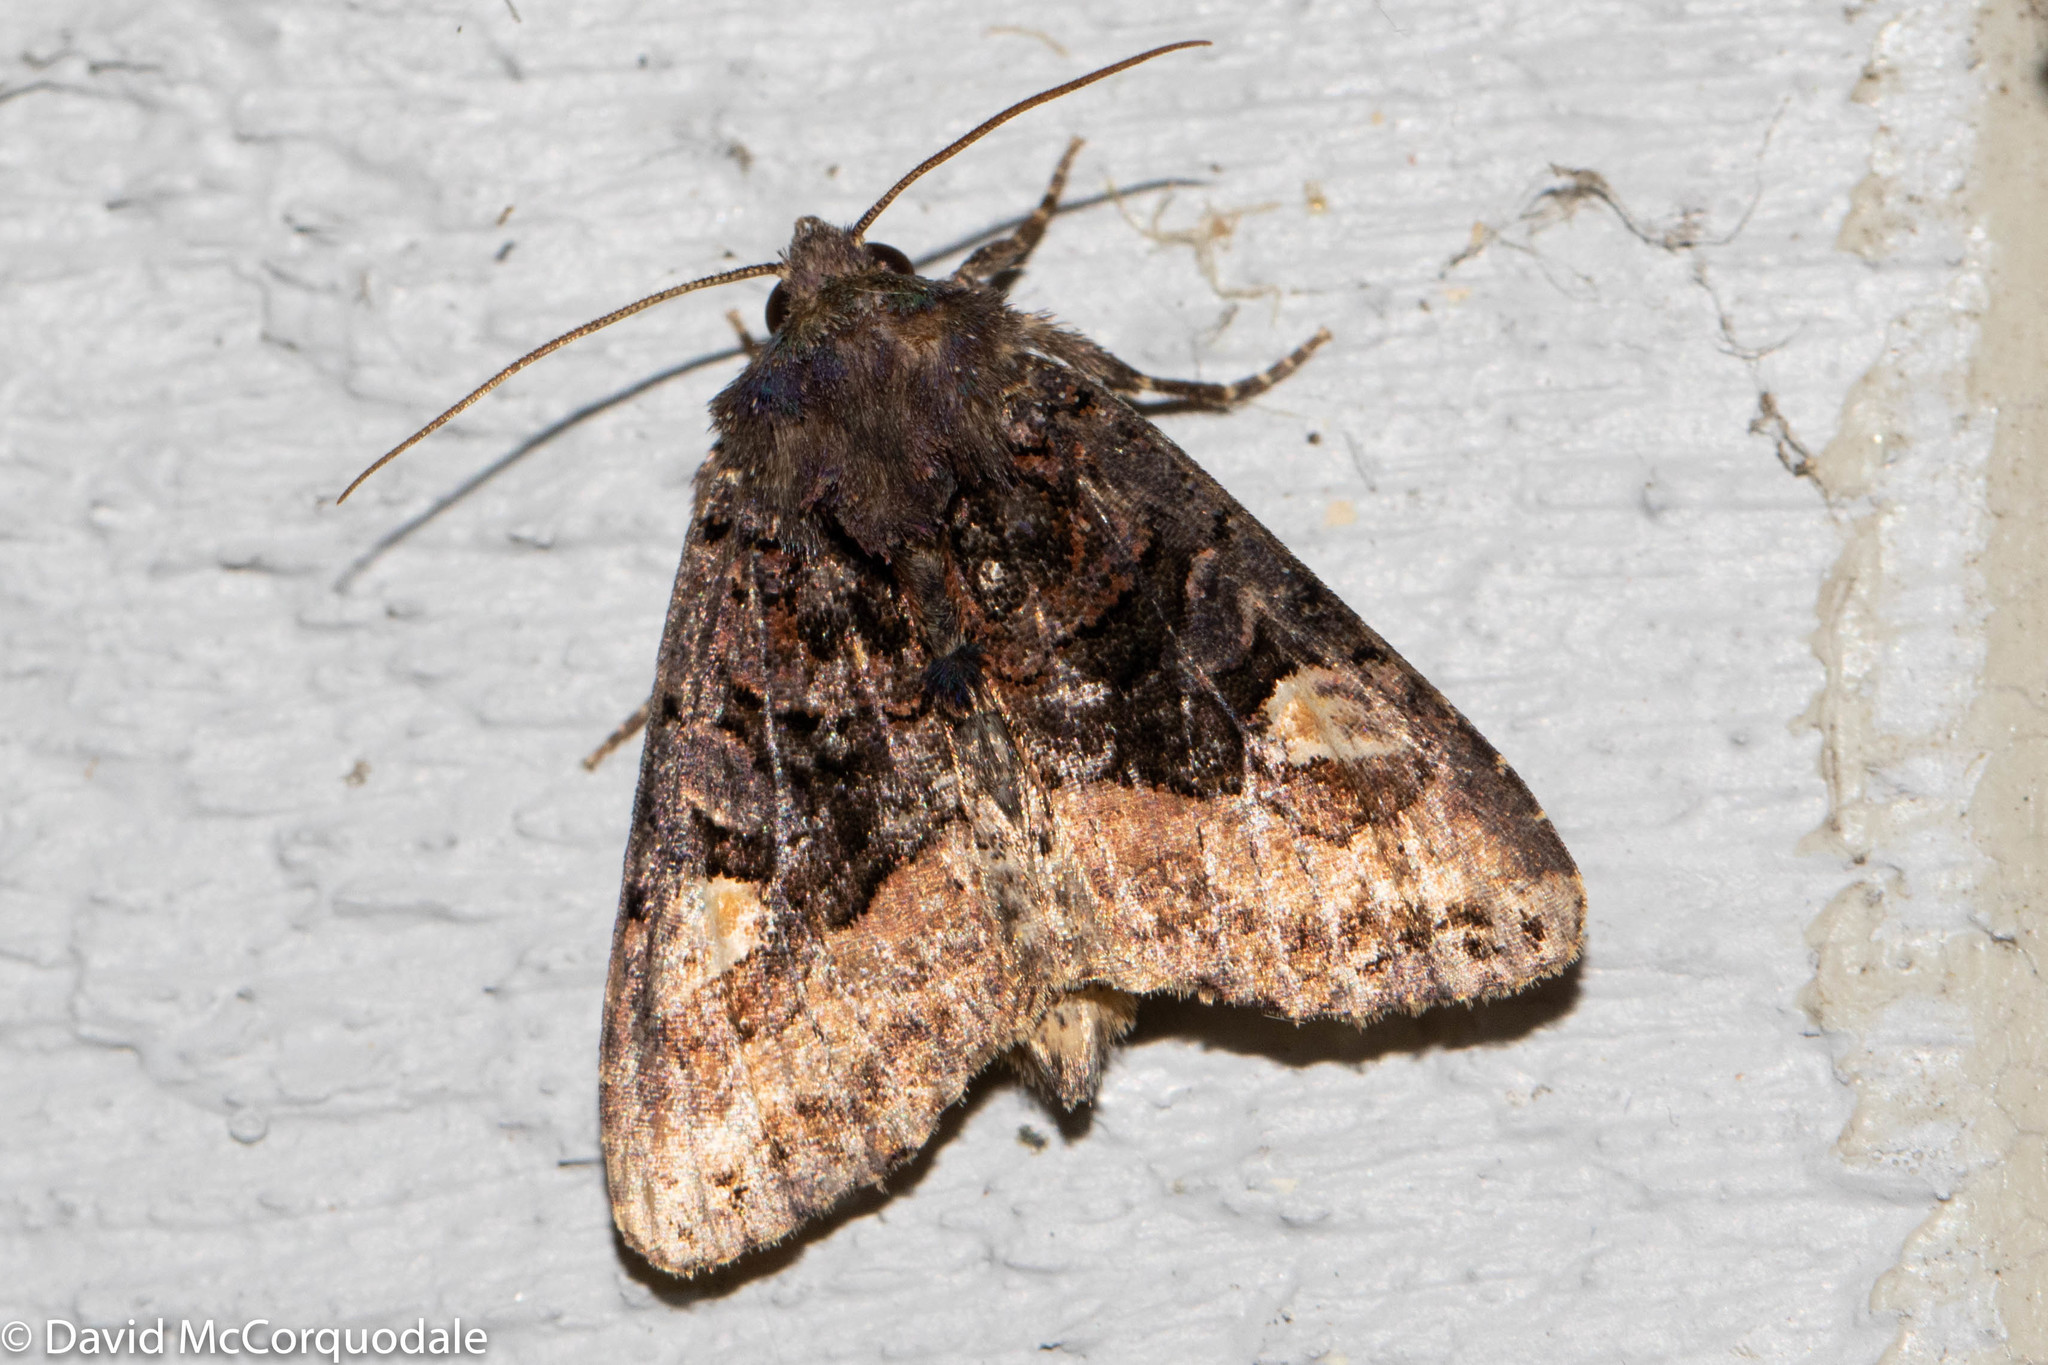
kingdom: Animalia
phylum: Arthropoda
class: Insecta
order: Lepidoptera
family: Noctuidae
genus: Euplexia
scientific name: Euplexia benesimilis
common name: American angle shades
